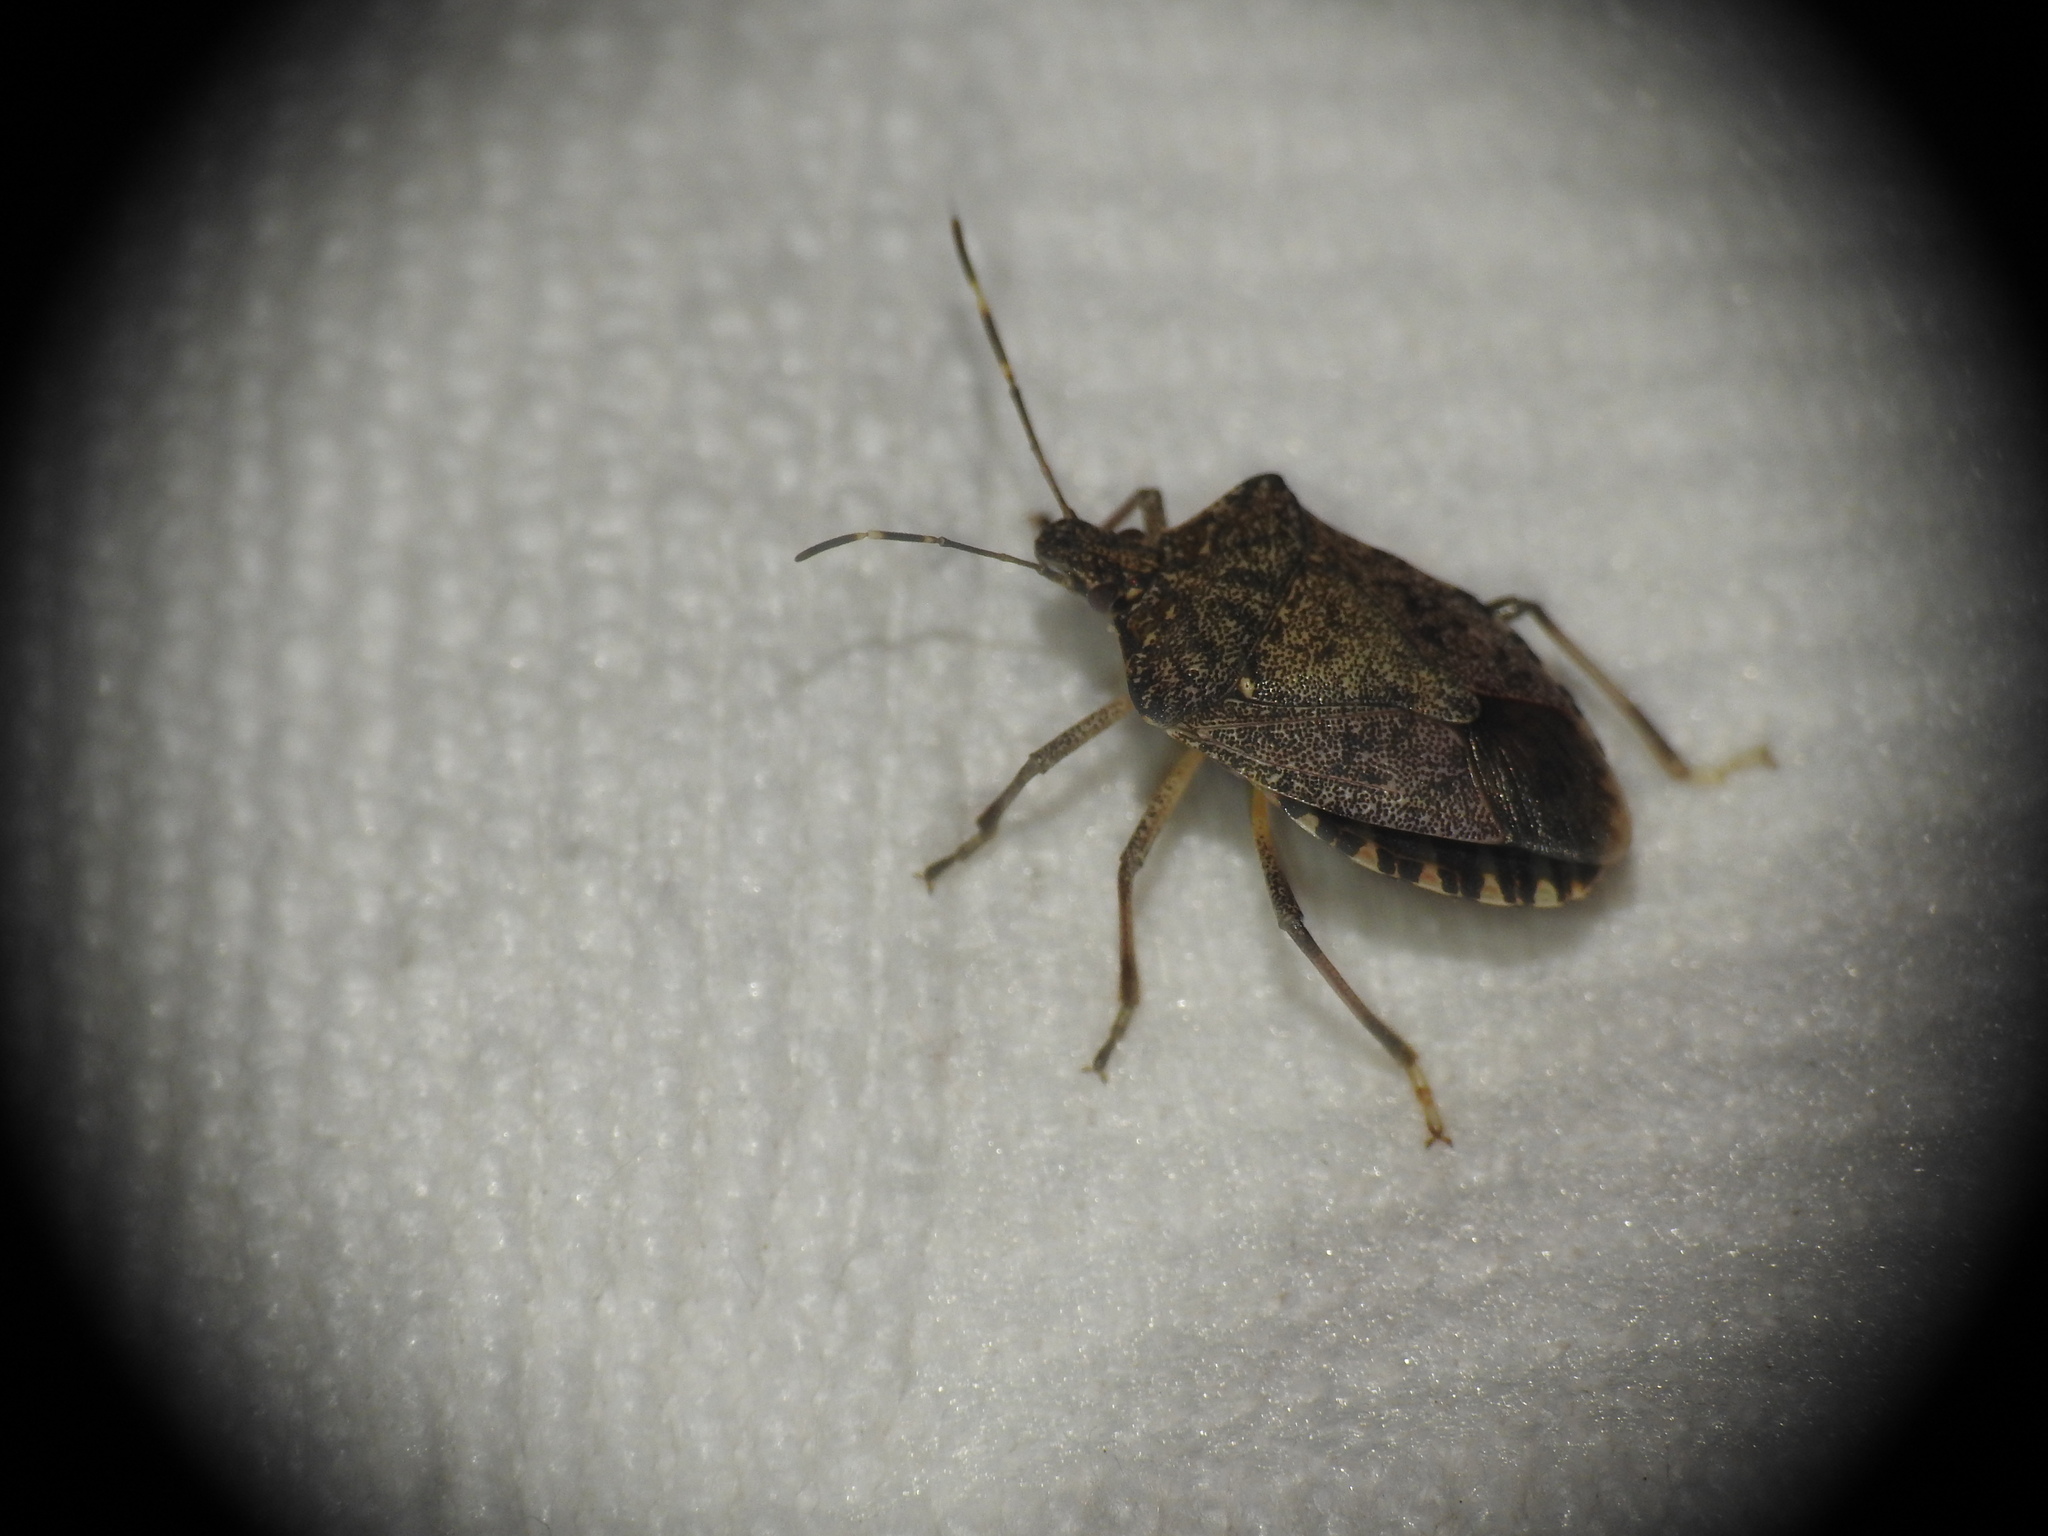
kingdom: Animalia
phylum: Arthropoda
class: Insecta
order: Hemiptera
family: Pentatomidae
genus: Halyomorpha
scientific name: Halyomorpha halys
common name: Brown marmorated stink bug
